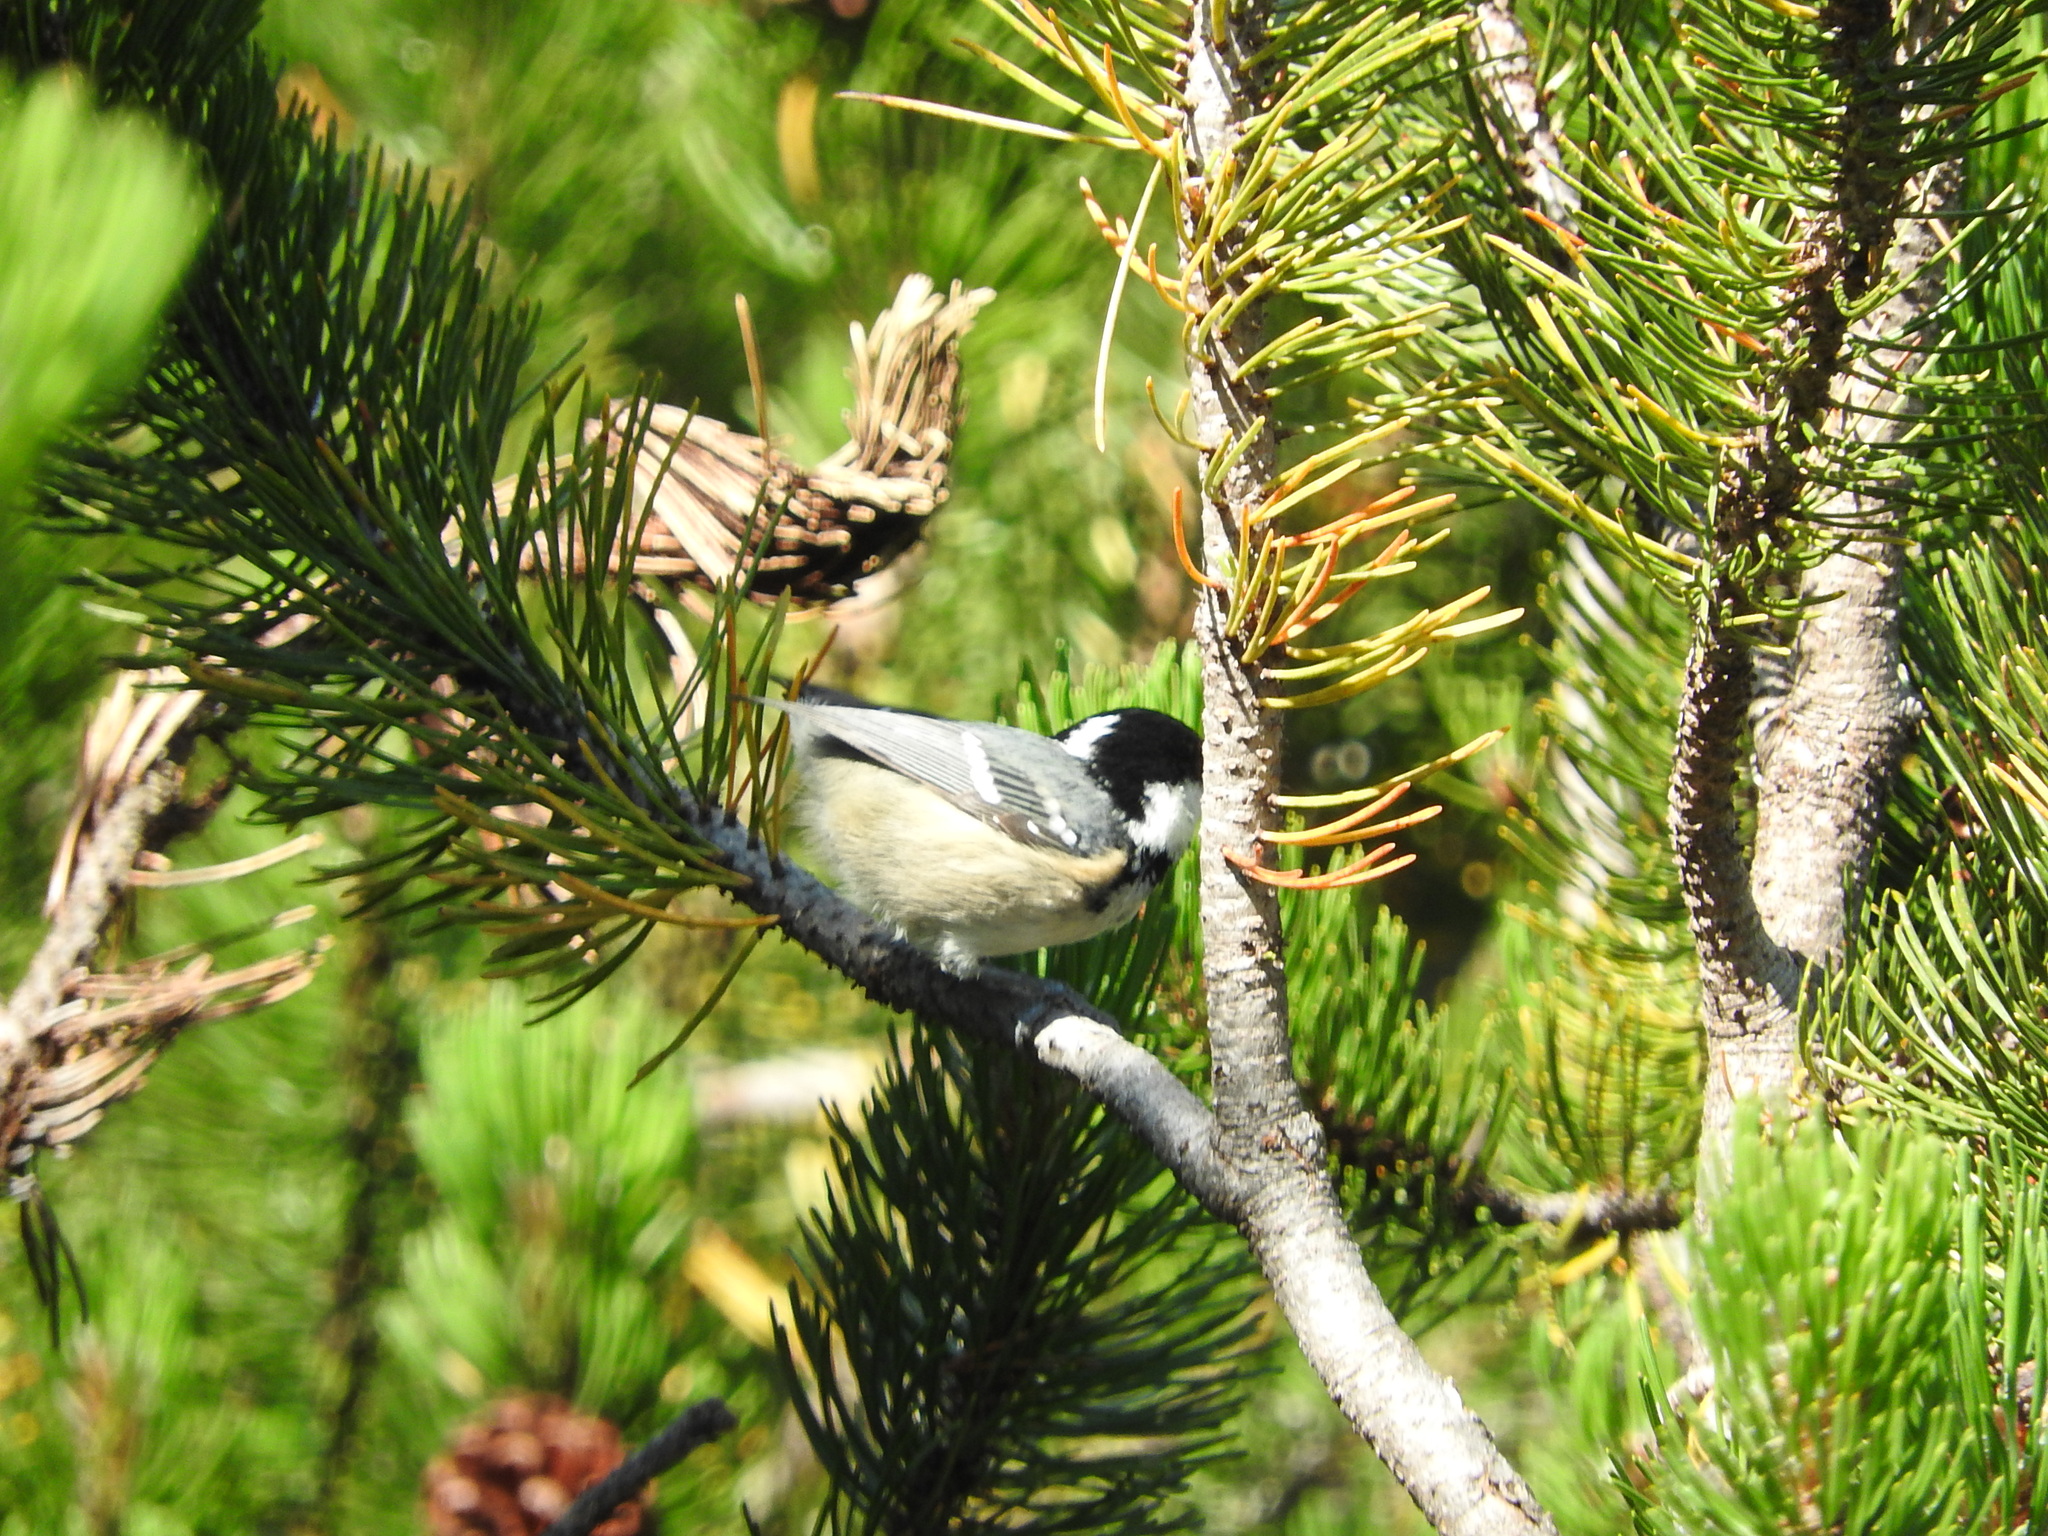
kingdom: Animalia
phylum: Chordata
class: Aves
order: Passeriformes
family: Paridae
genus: Periparus
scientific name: Periparus ater
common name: Coal tit
